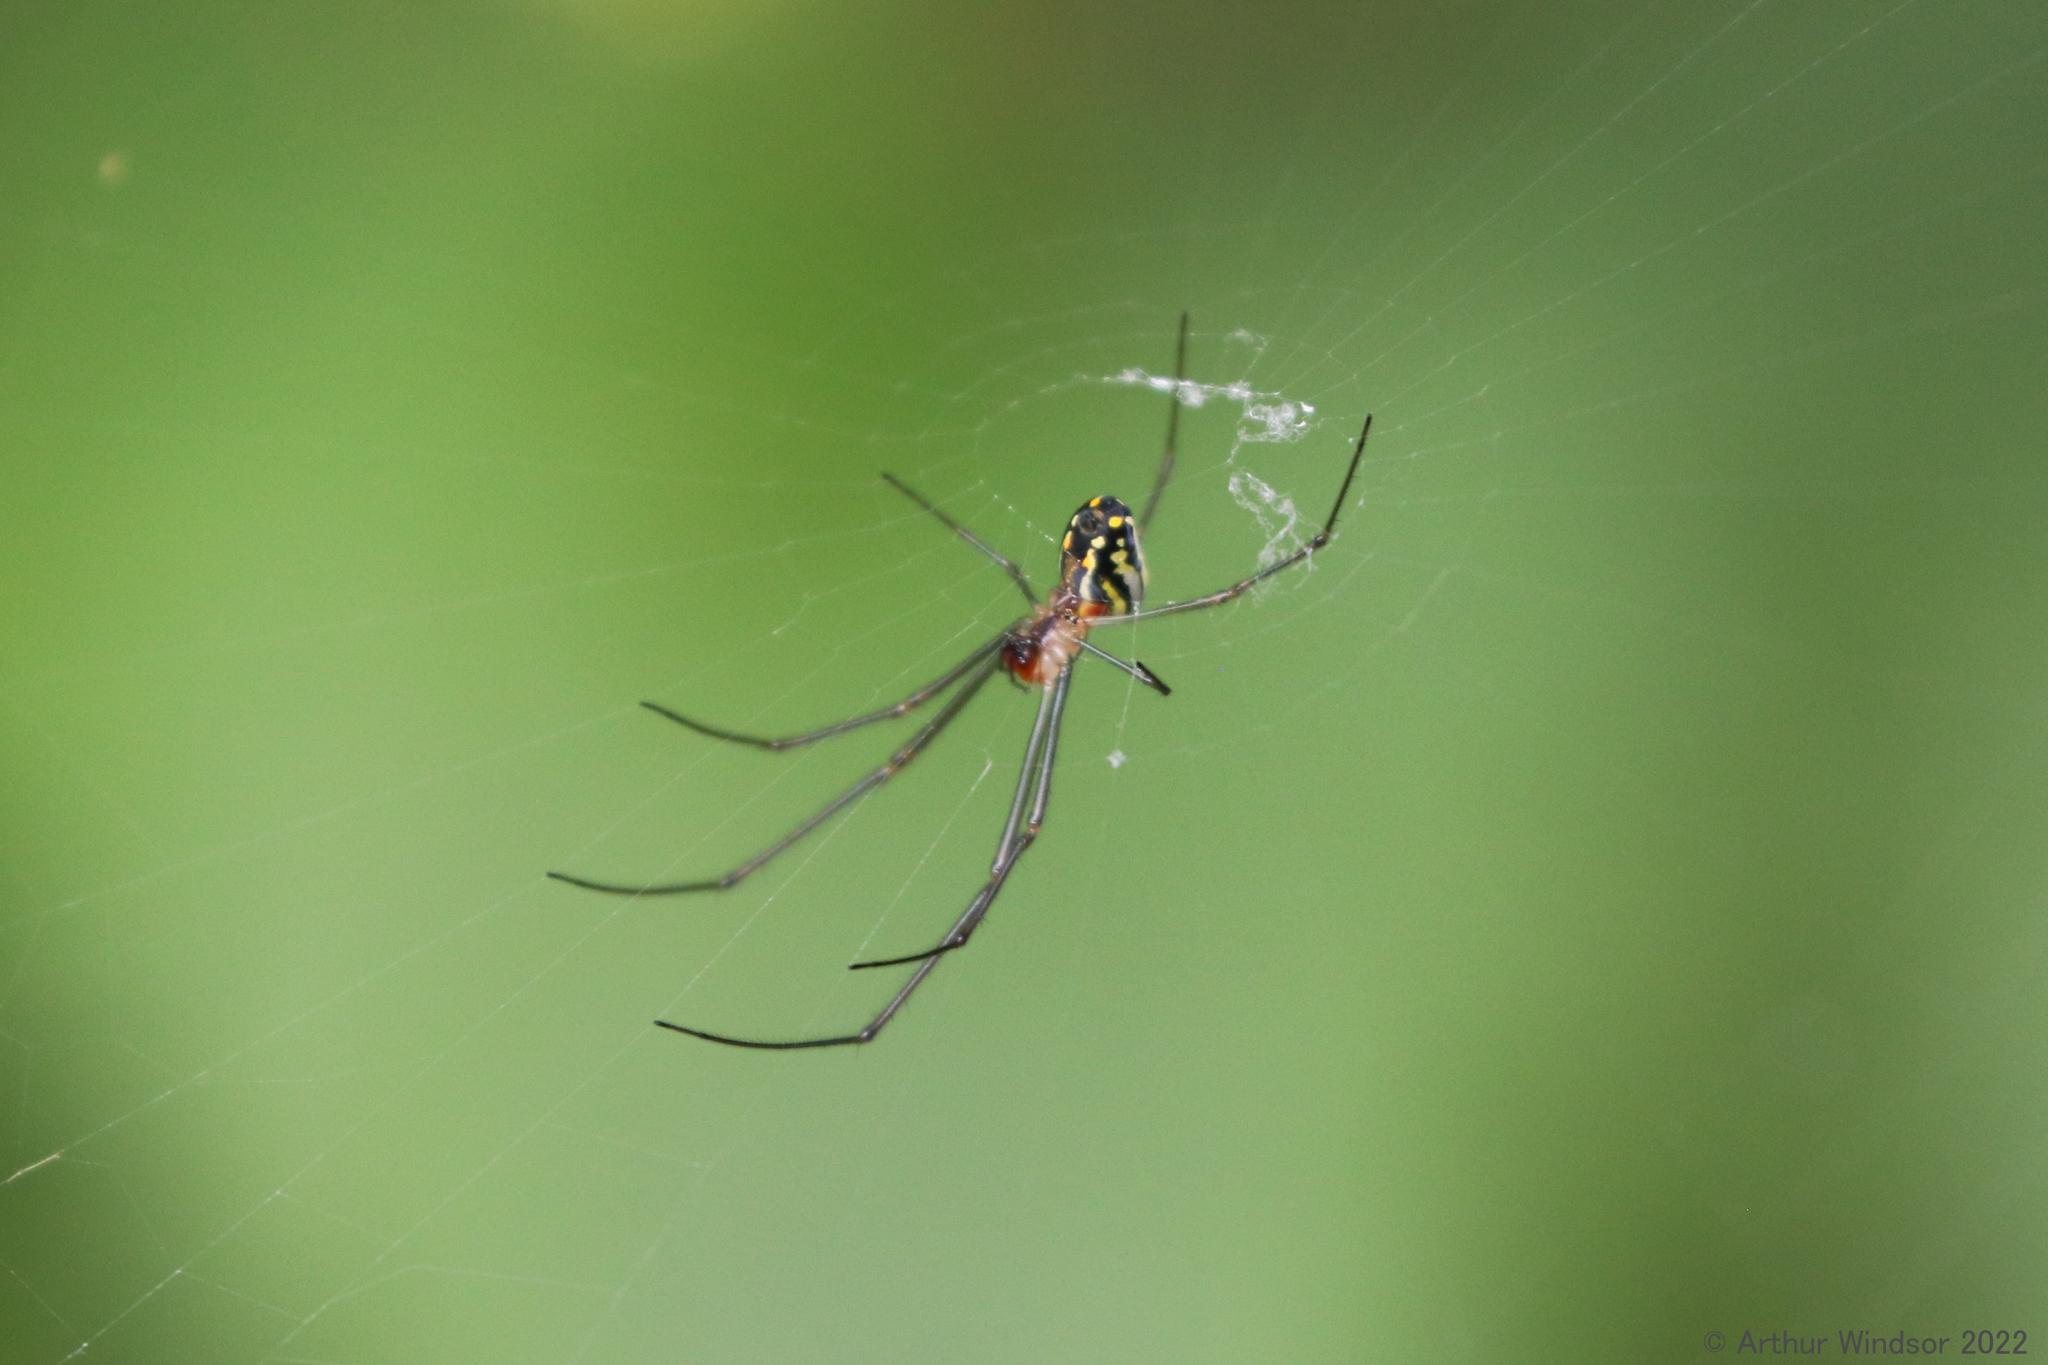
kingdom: Animalia
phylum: Arthropoda
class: Arachnida
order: Araneae
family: Tetragnathidae
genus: Leucauge
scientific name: Leucauge argyra
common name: Longjawed orb weavers
